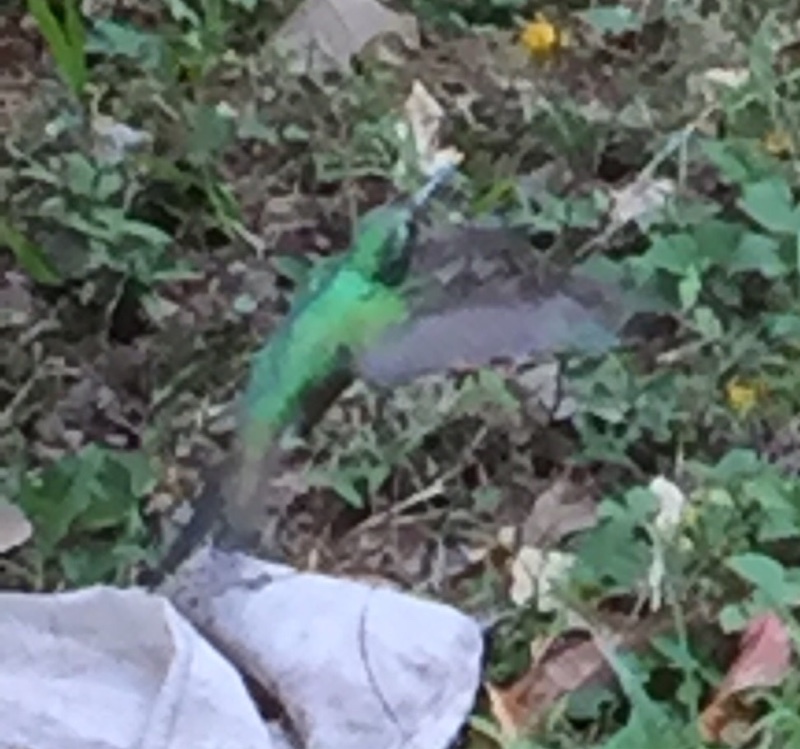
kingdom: Animalia
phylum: Chordata
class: Aves
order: Apodiformes
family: Trochilidae
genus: Riccordia
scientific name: Riccordia ricordii
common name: Cuban emerald
